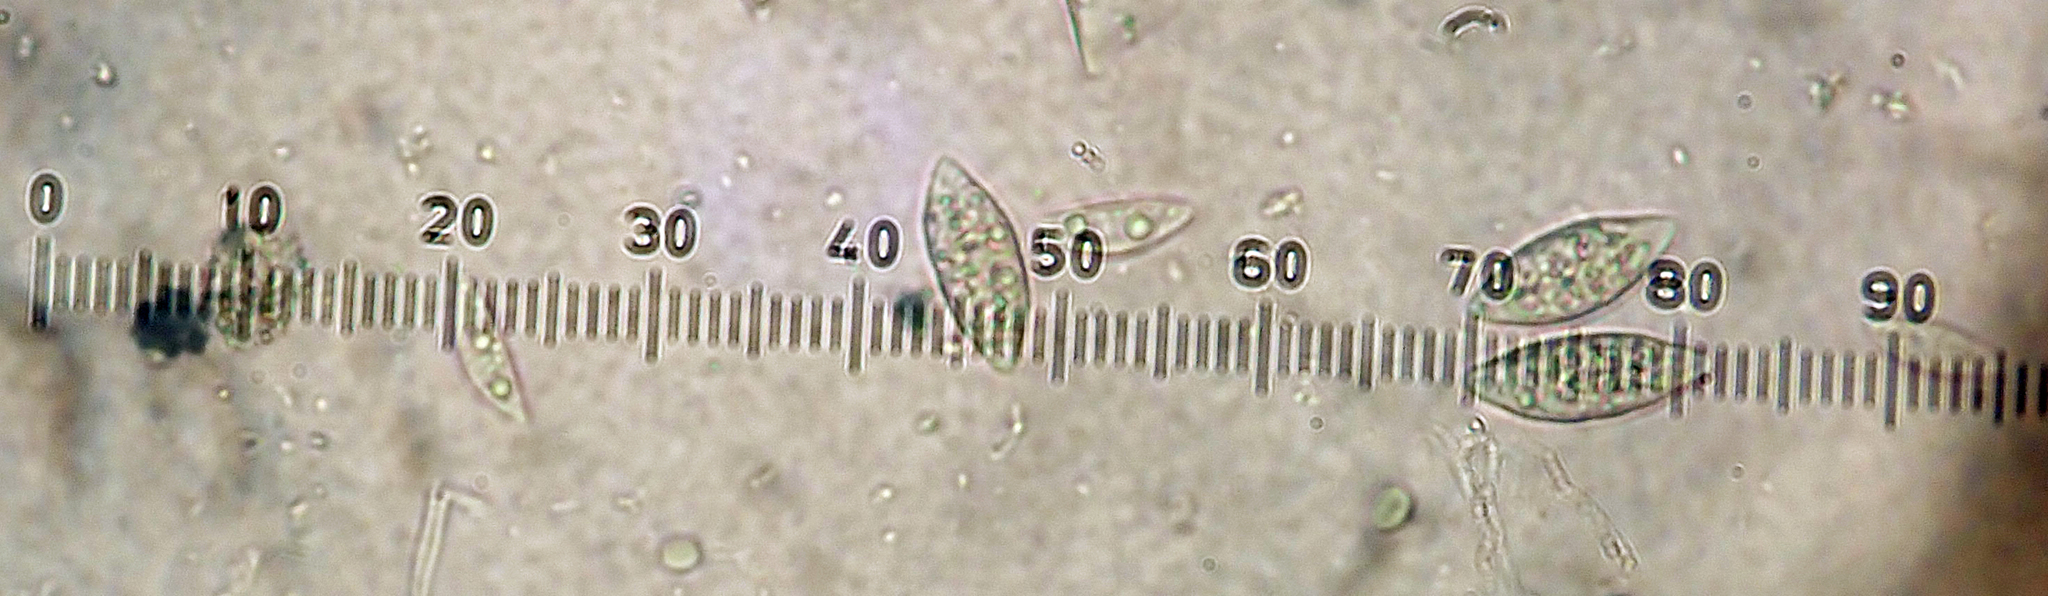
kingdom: Fungi
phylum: Ascomycota
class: Lecanoromycetes
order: Peltigerales
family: Collemataceae
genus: Leptogium
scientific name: Leptogium
